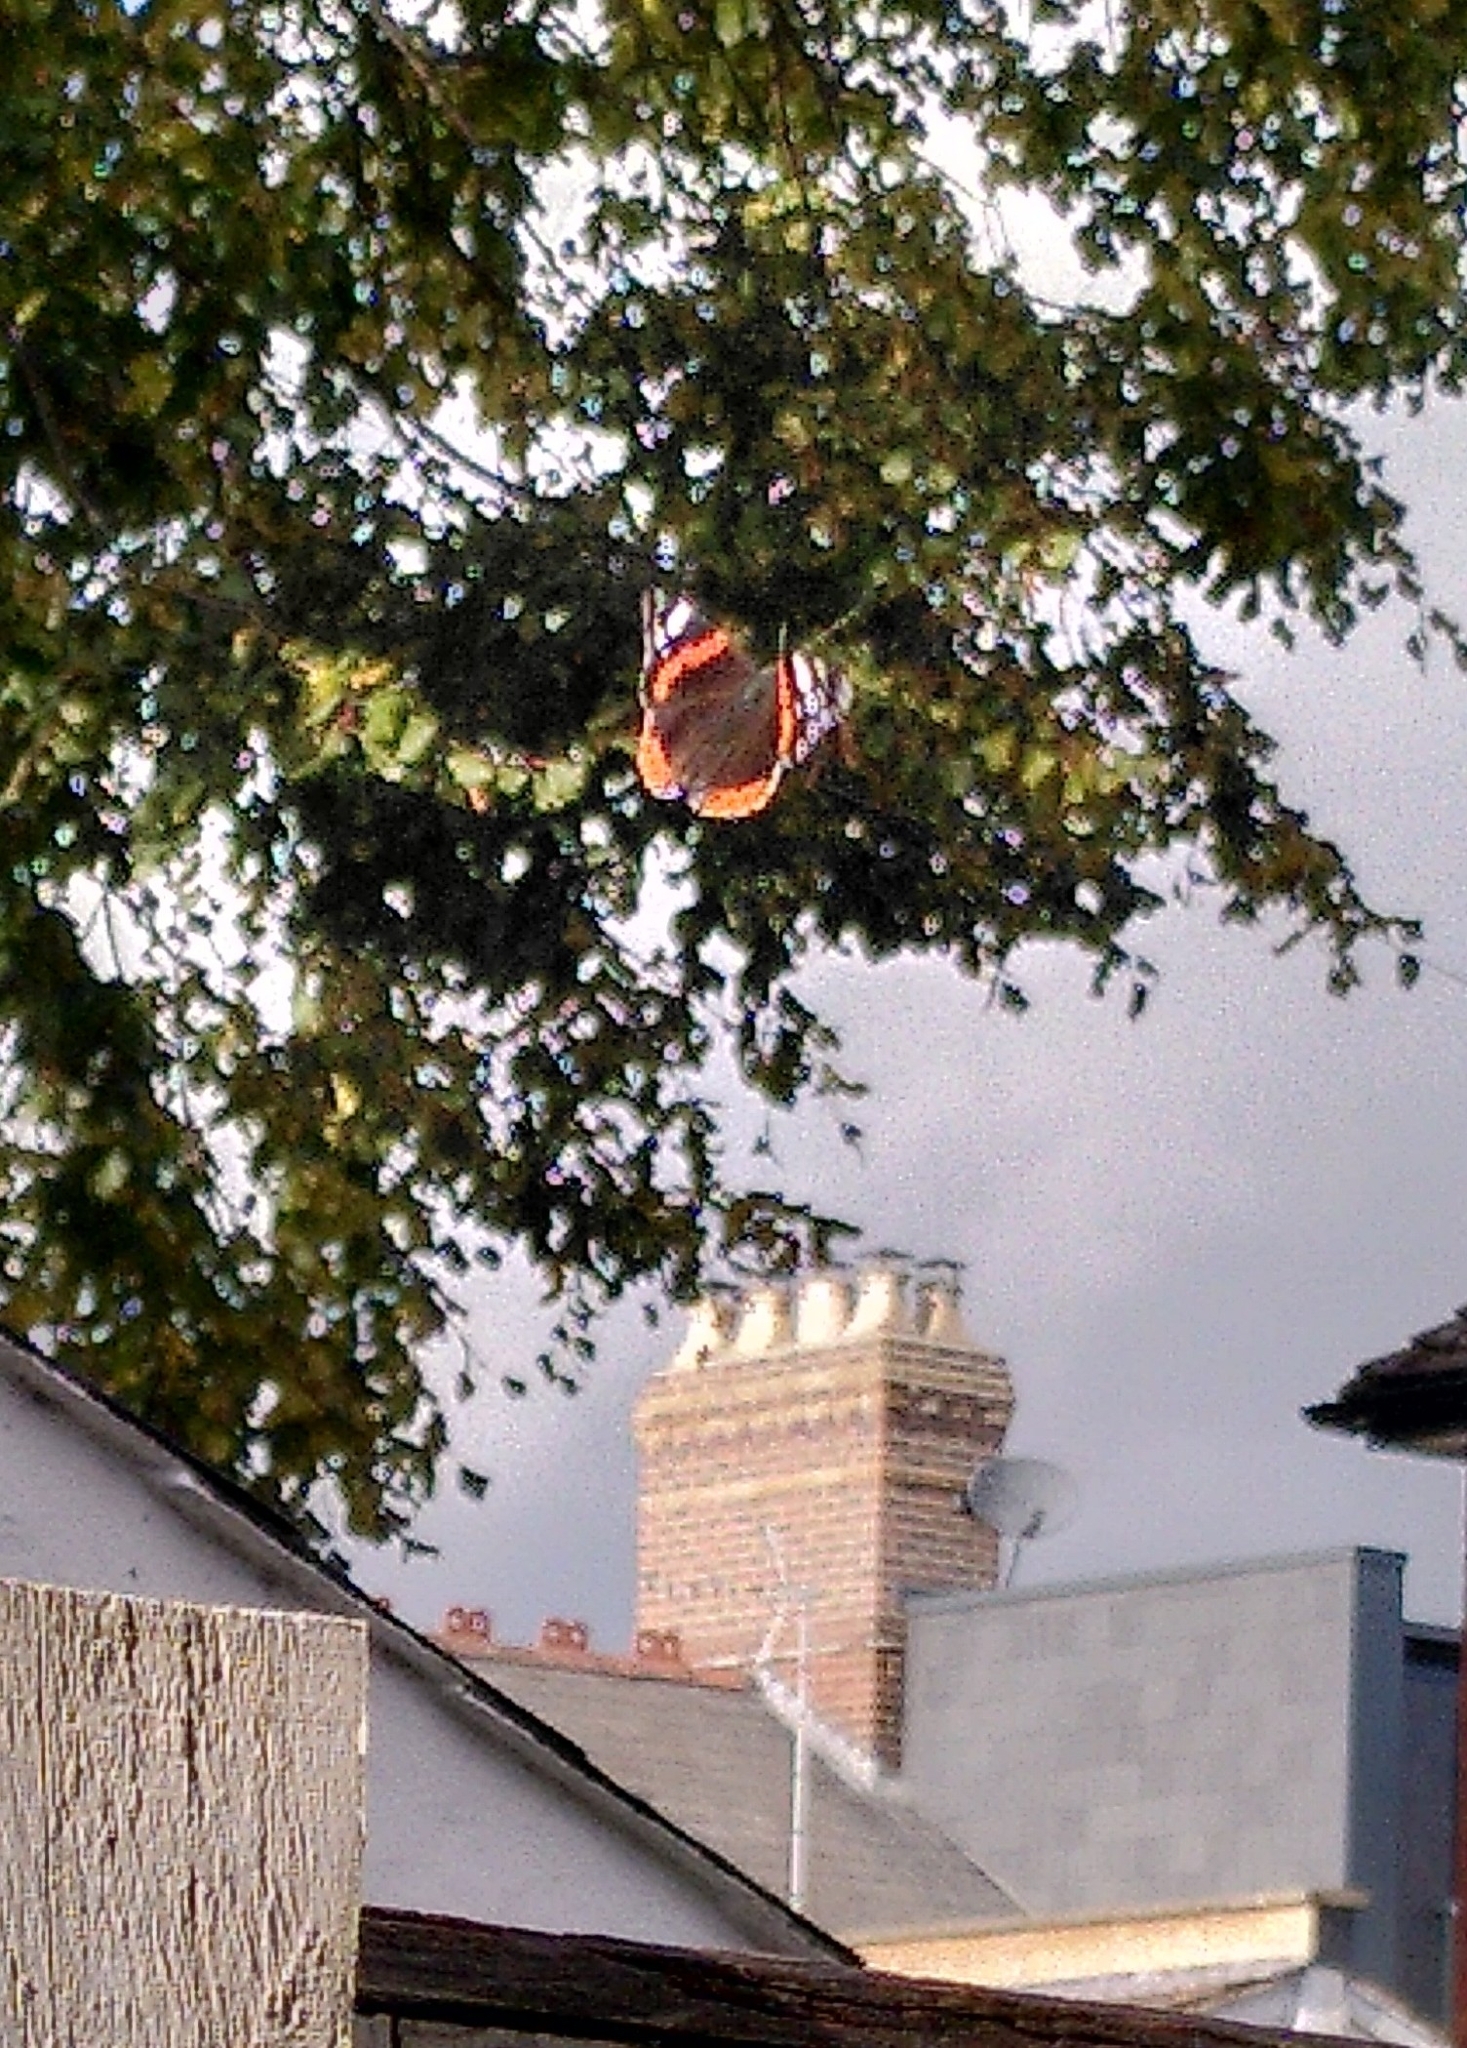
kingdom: Animalia
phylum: Arthropoda
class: Insecta
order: Lepidoptera
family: Nymphalidae
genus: Vanessa
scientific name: Vanessa atalanta
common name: Red admiral
